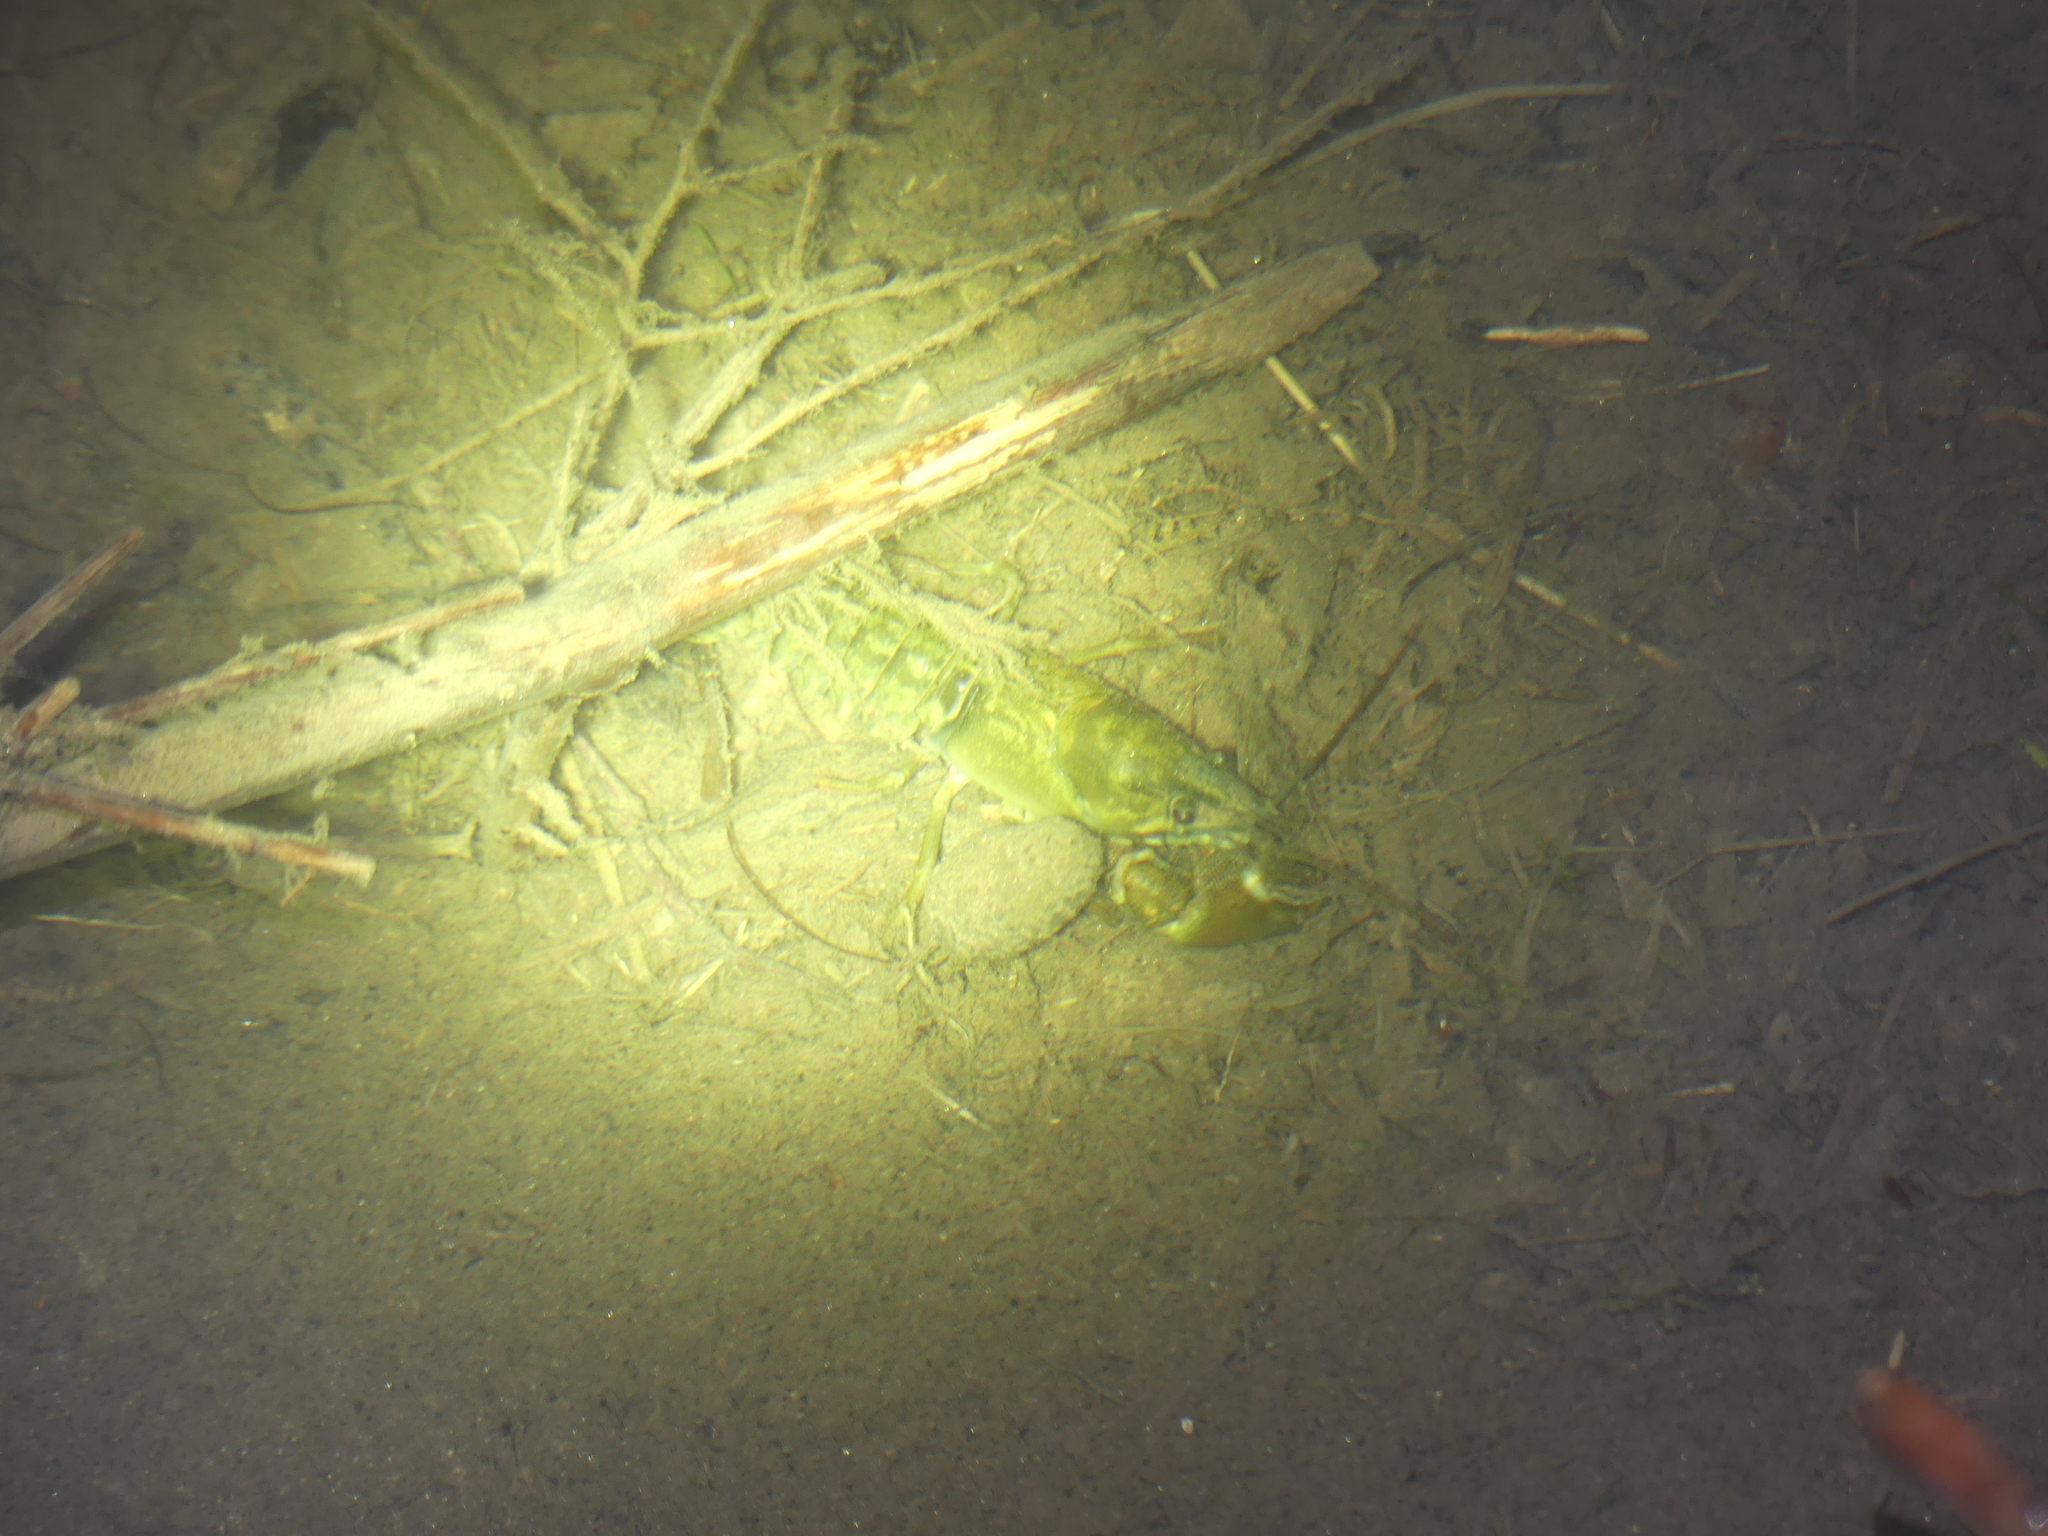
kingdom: Animalia
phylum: Arthropoda
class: Malacostraca
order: Decapoda
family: Astacidae
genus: Pacifastacus
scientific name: Pacifastacus leniusculus
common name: Signal crayfish
